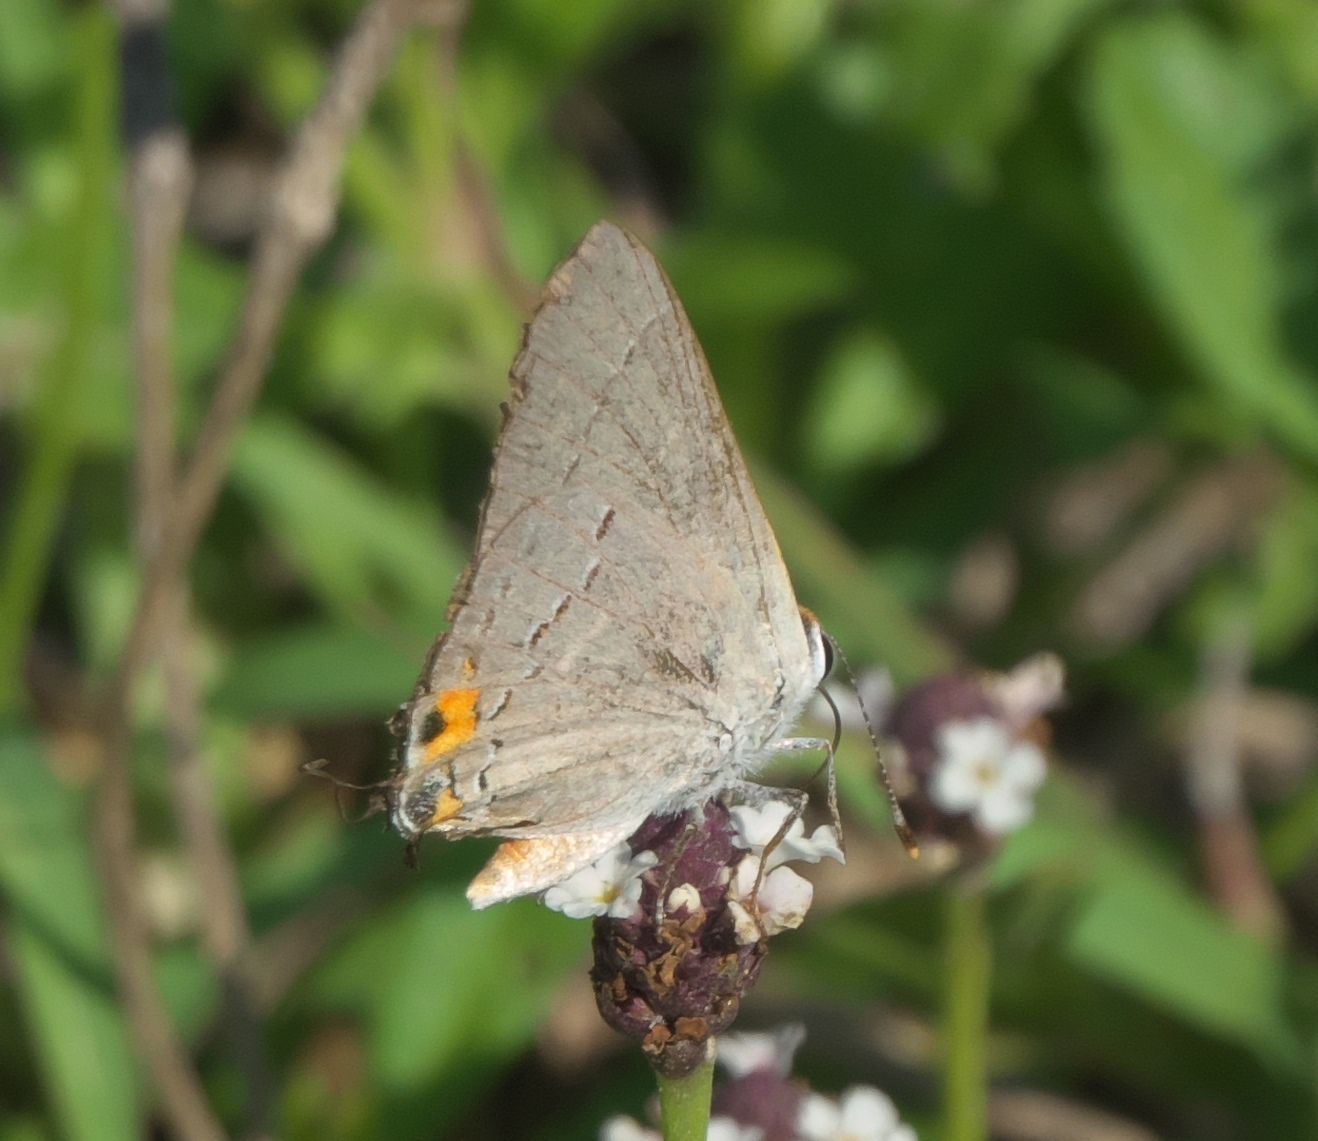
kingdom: Animalia
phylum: Arthropoda
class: Insecta
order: Lepidoptera
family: Lycaenidae
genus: Strymon
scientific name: Strymon melinus
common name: Gray hairstreak
